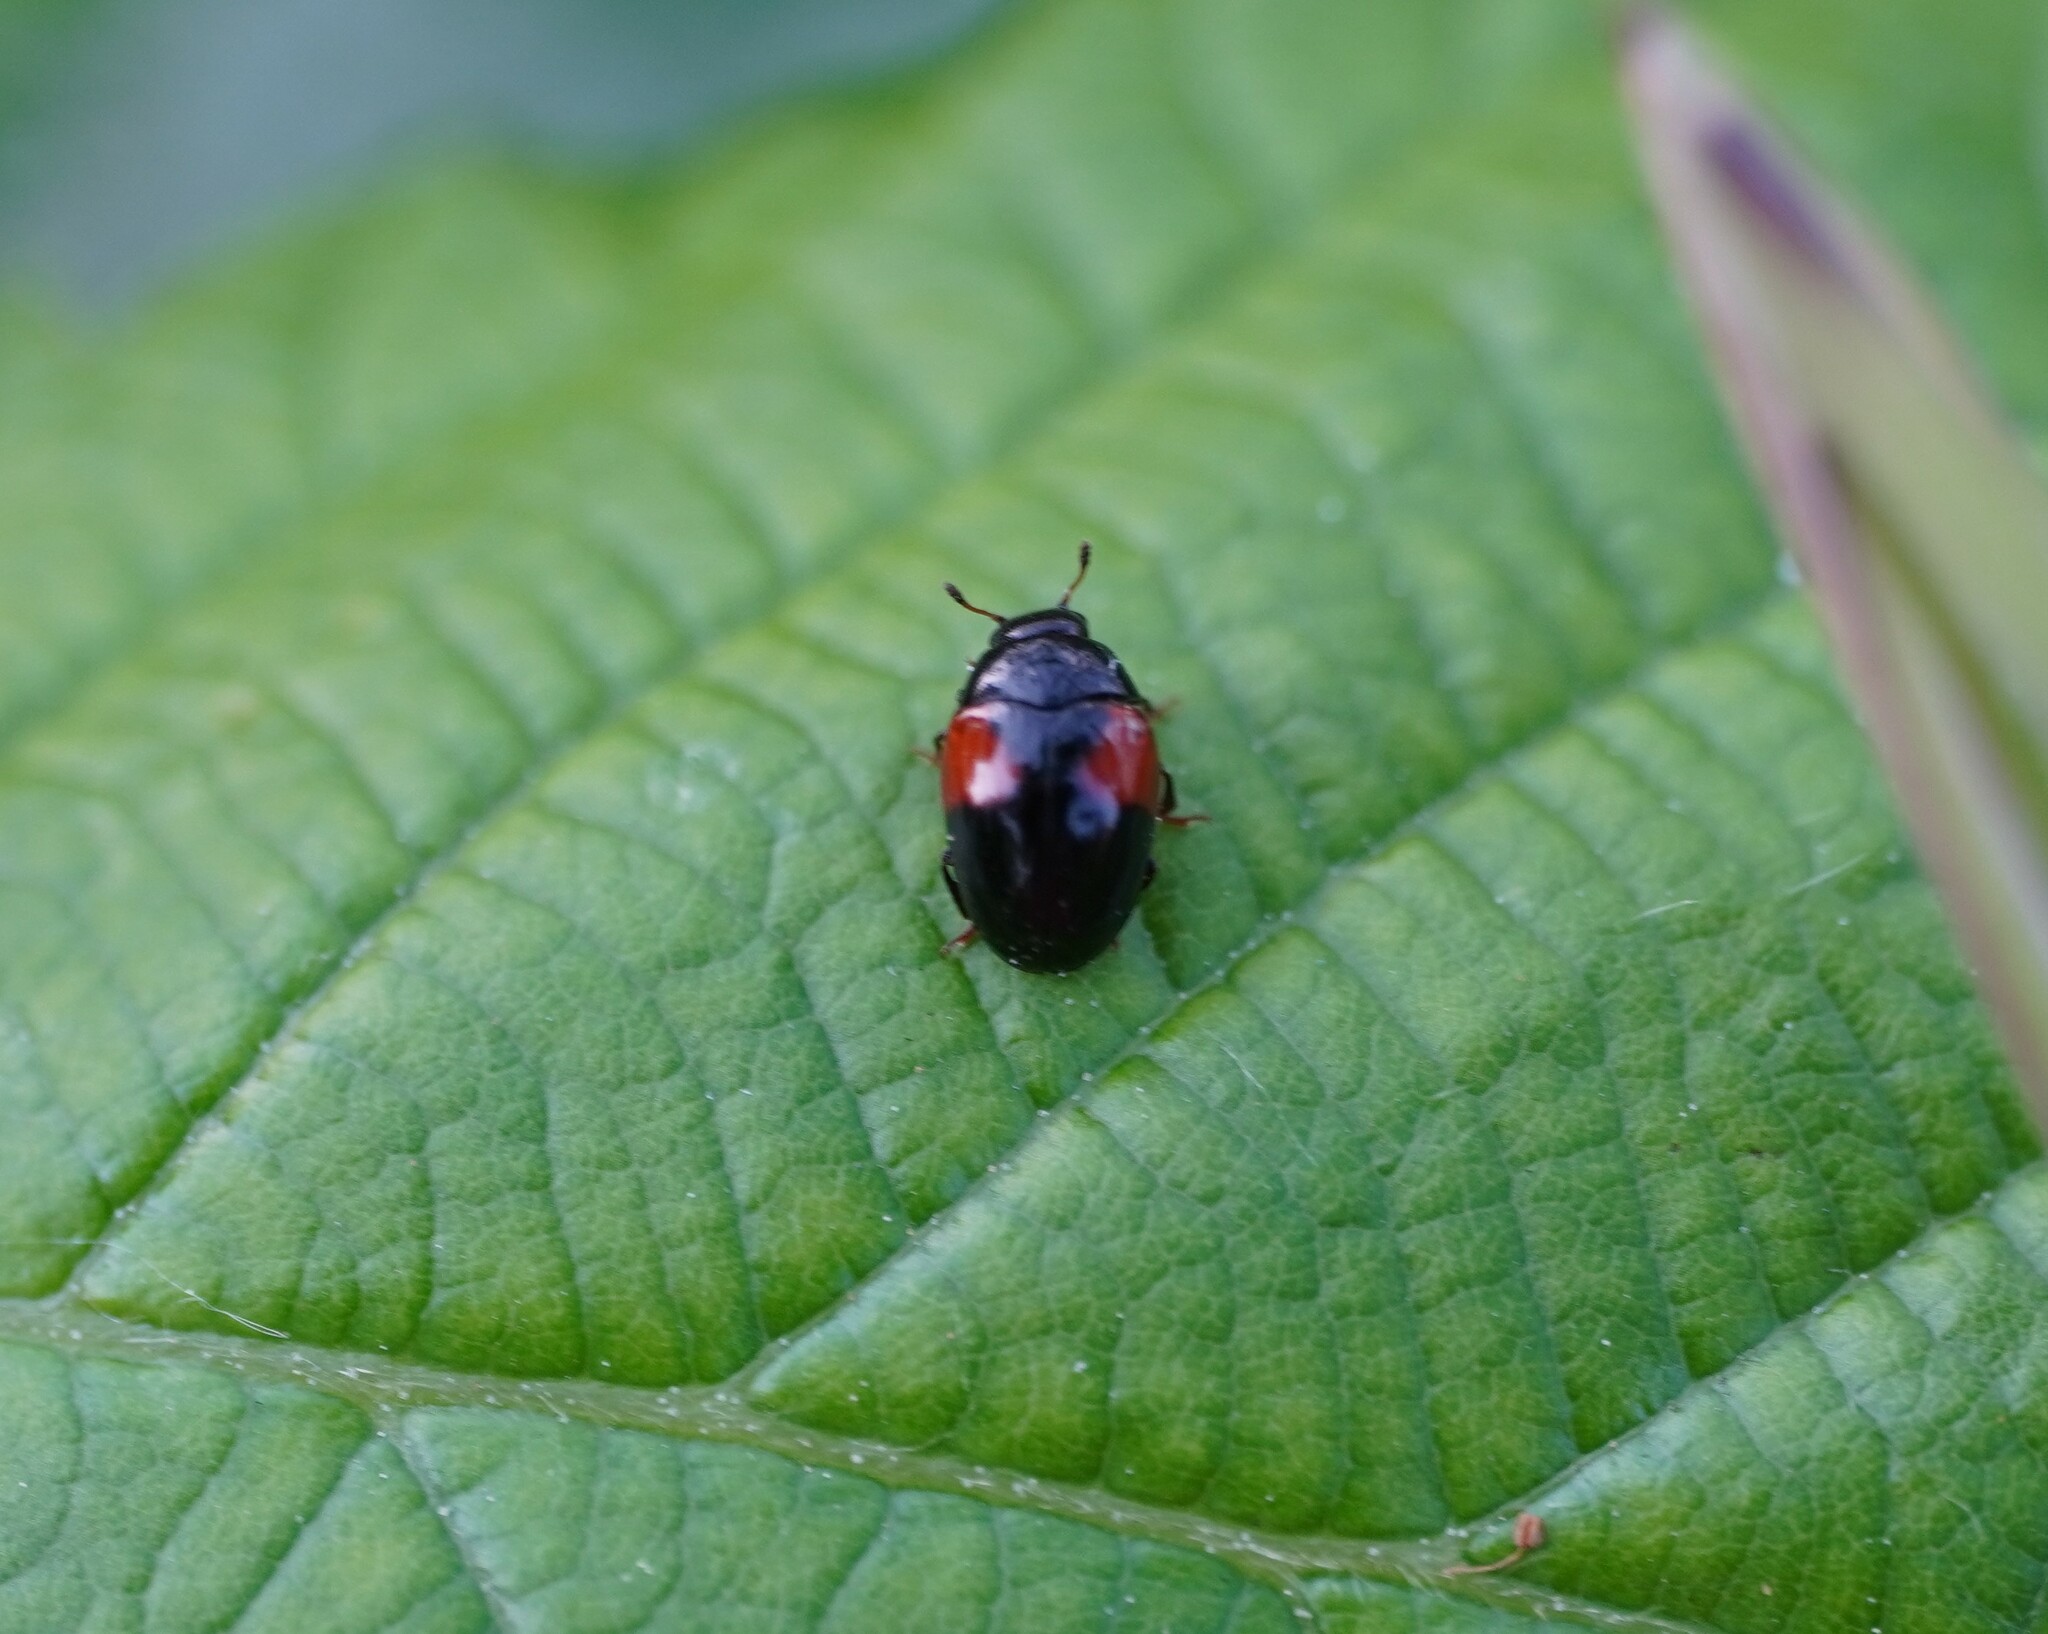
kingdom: Animalia
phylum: Arthropoda
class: Insecta
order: Coleoptera
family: Erotylidae
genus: Tritoma
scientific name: Tritoma bipustulata
